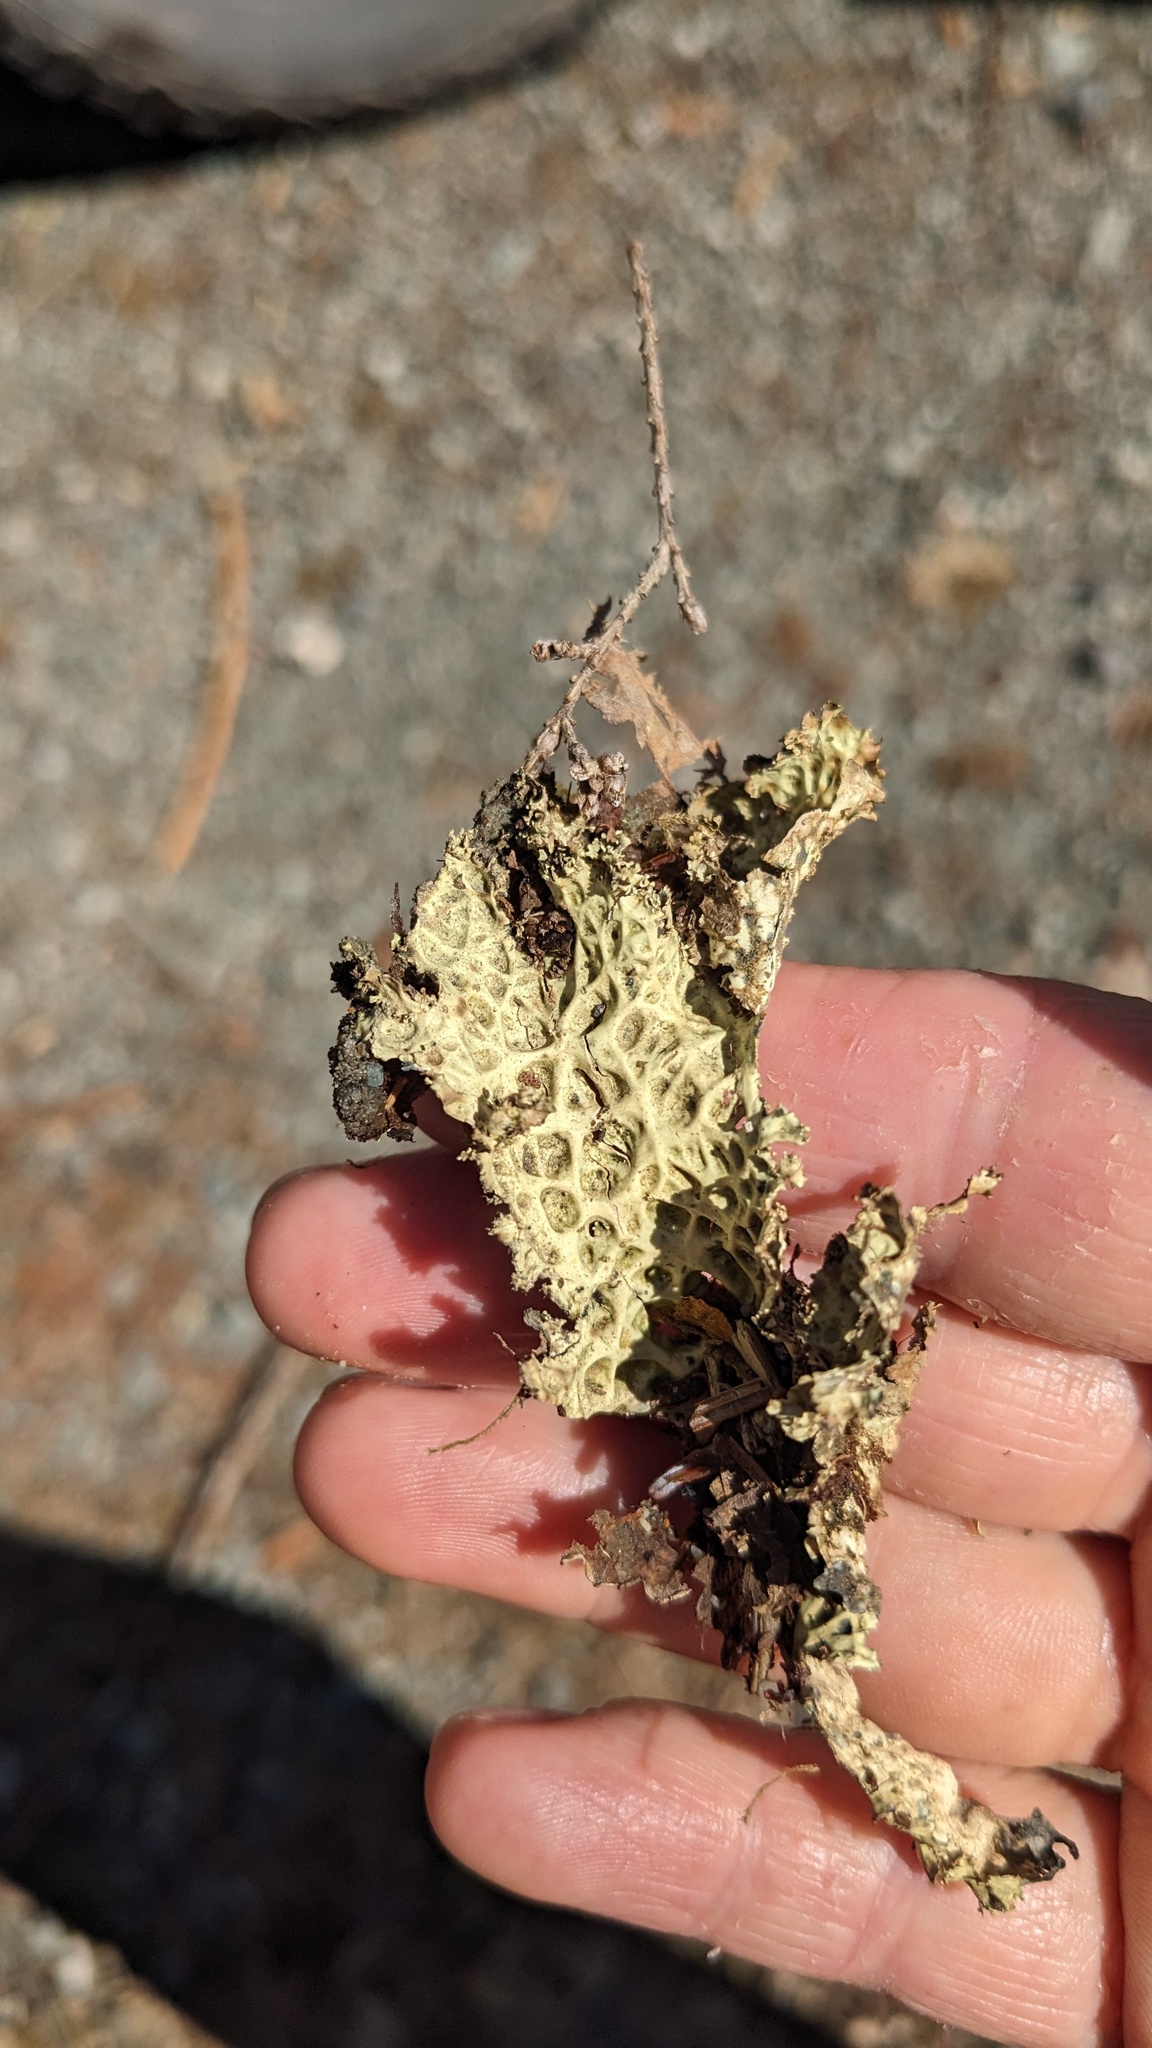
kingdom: Fungi
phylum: Ascomycota
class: Lecanoromycetes
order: Peltigerales
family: Lobariaceae
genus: Lobaria
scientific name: Lobaria oregana
